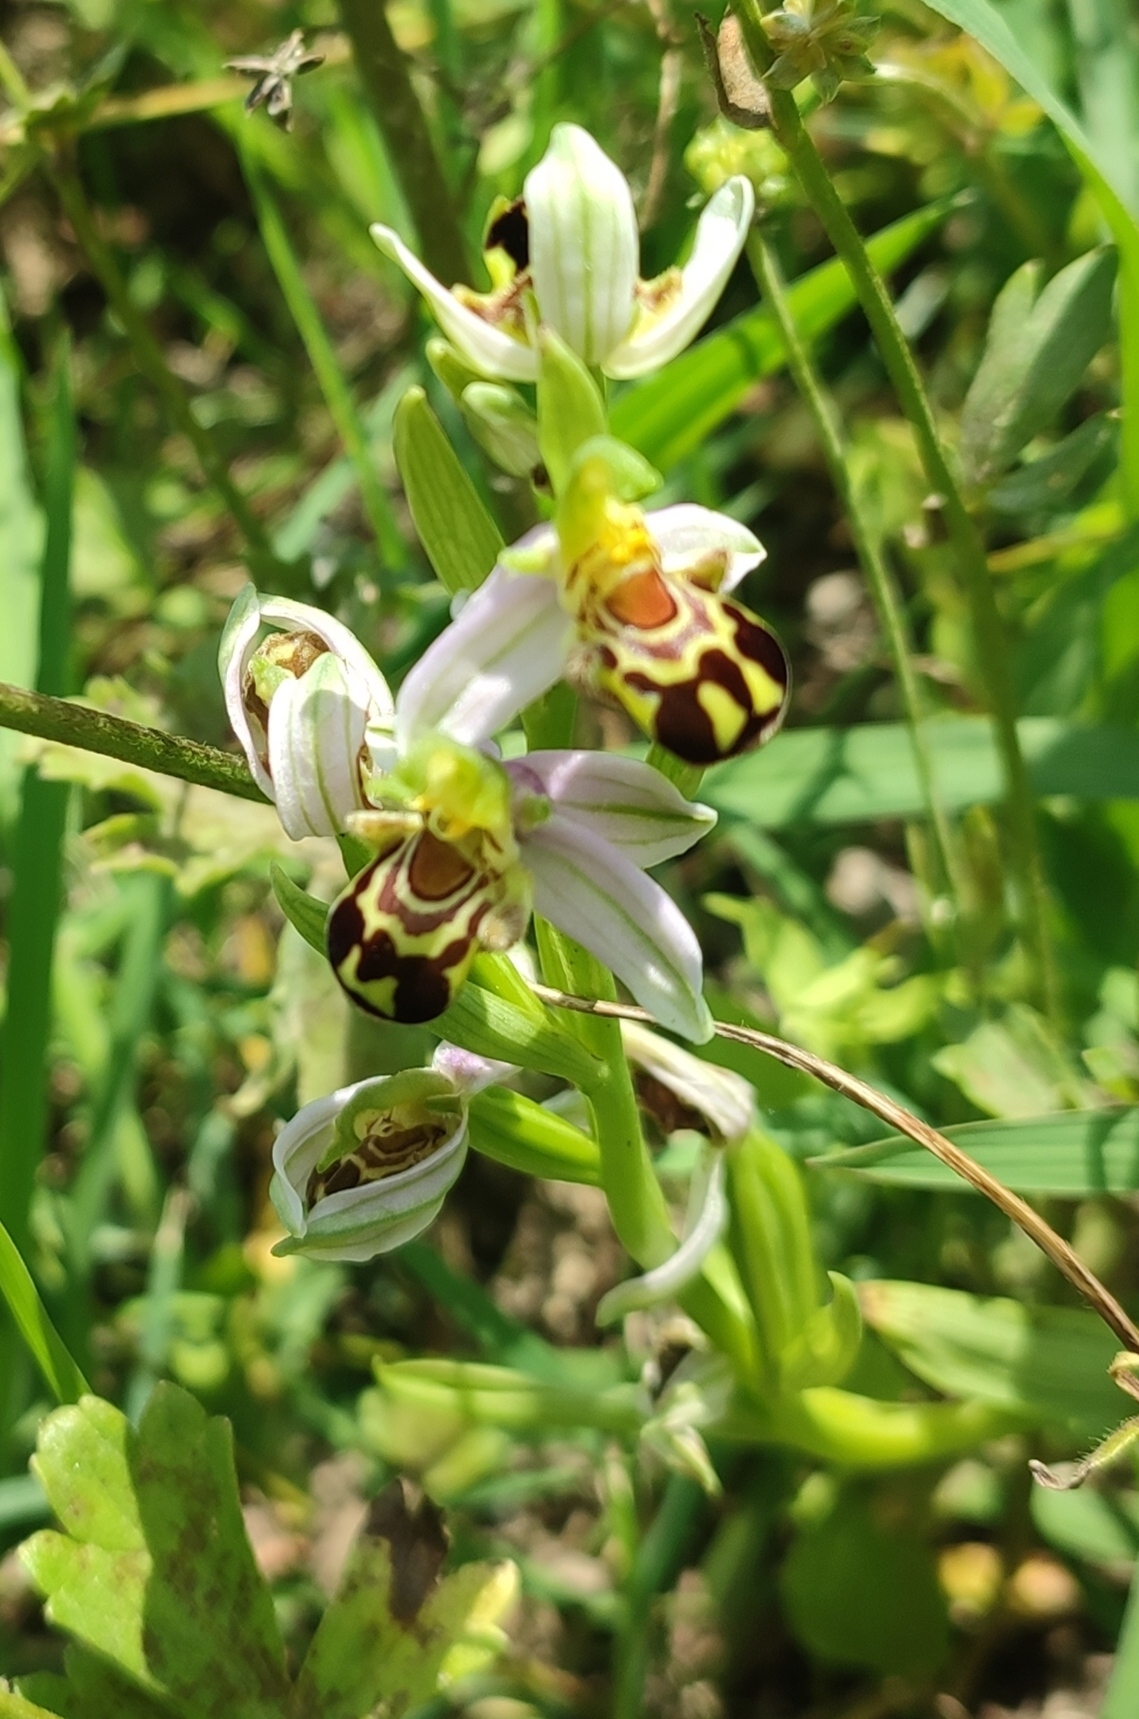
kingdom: Plantae
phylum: Tracheophyta
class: Liliopsida
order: Asparagales
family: Orchidaceae
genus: Ophrys
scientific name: Ophrys apifera
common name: Bee orchid
